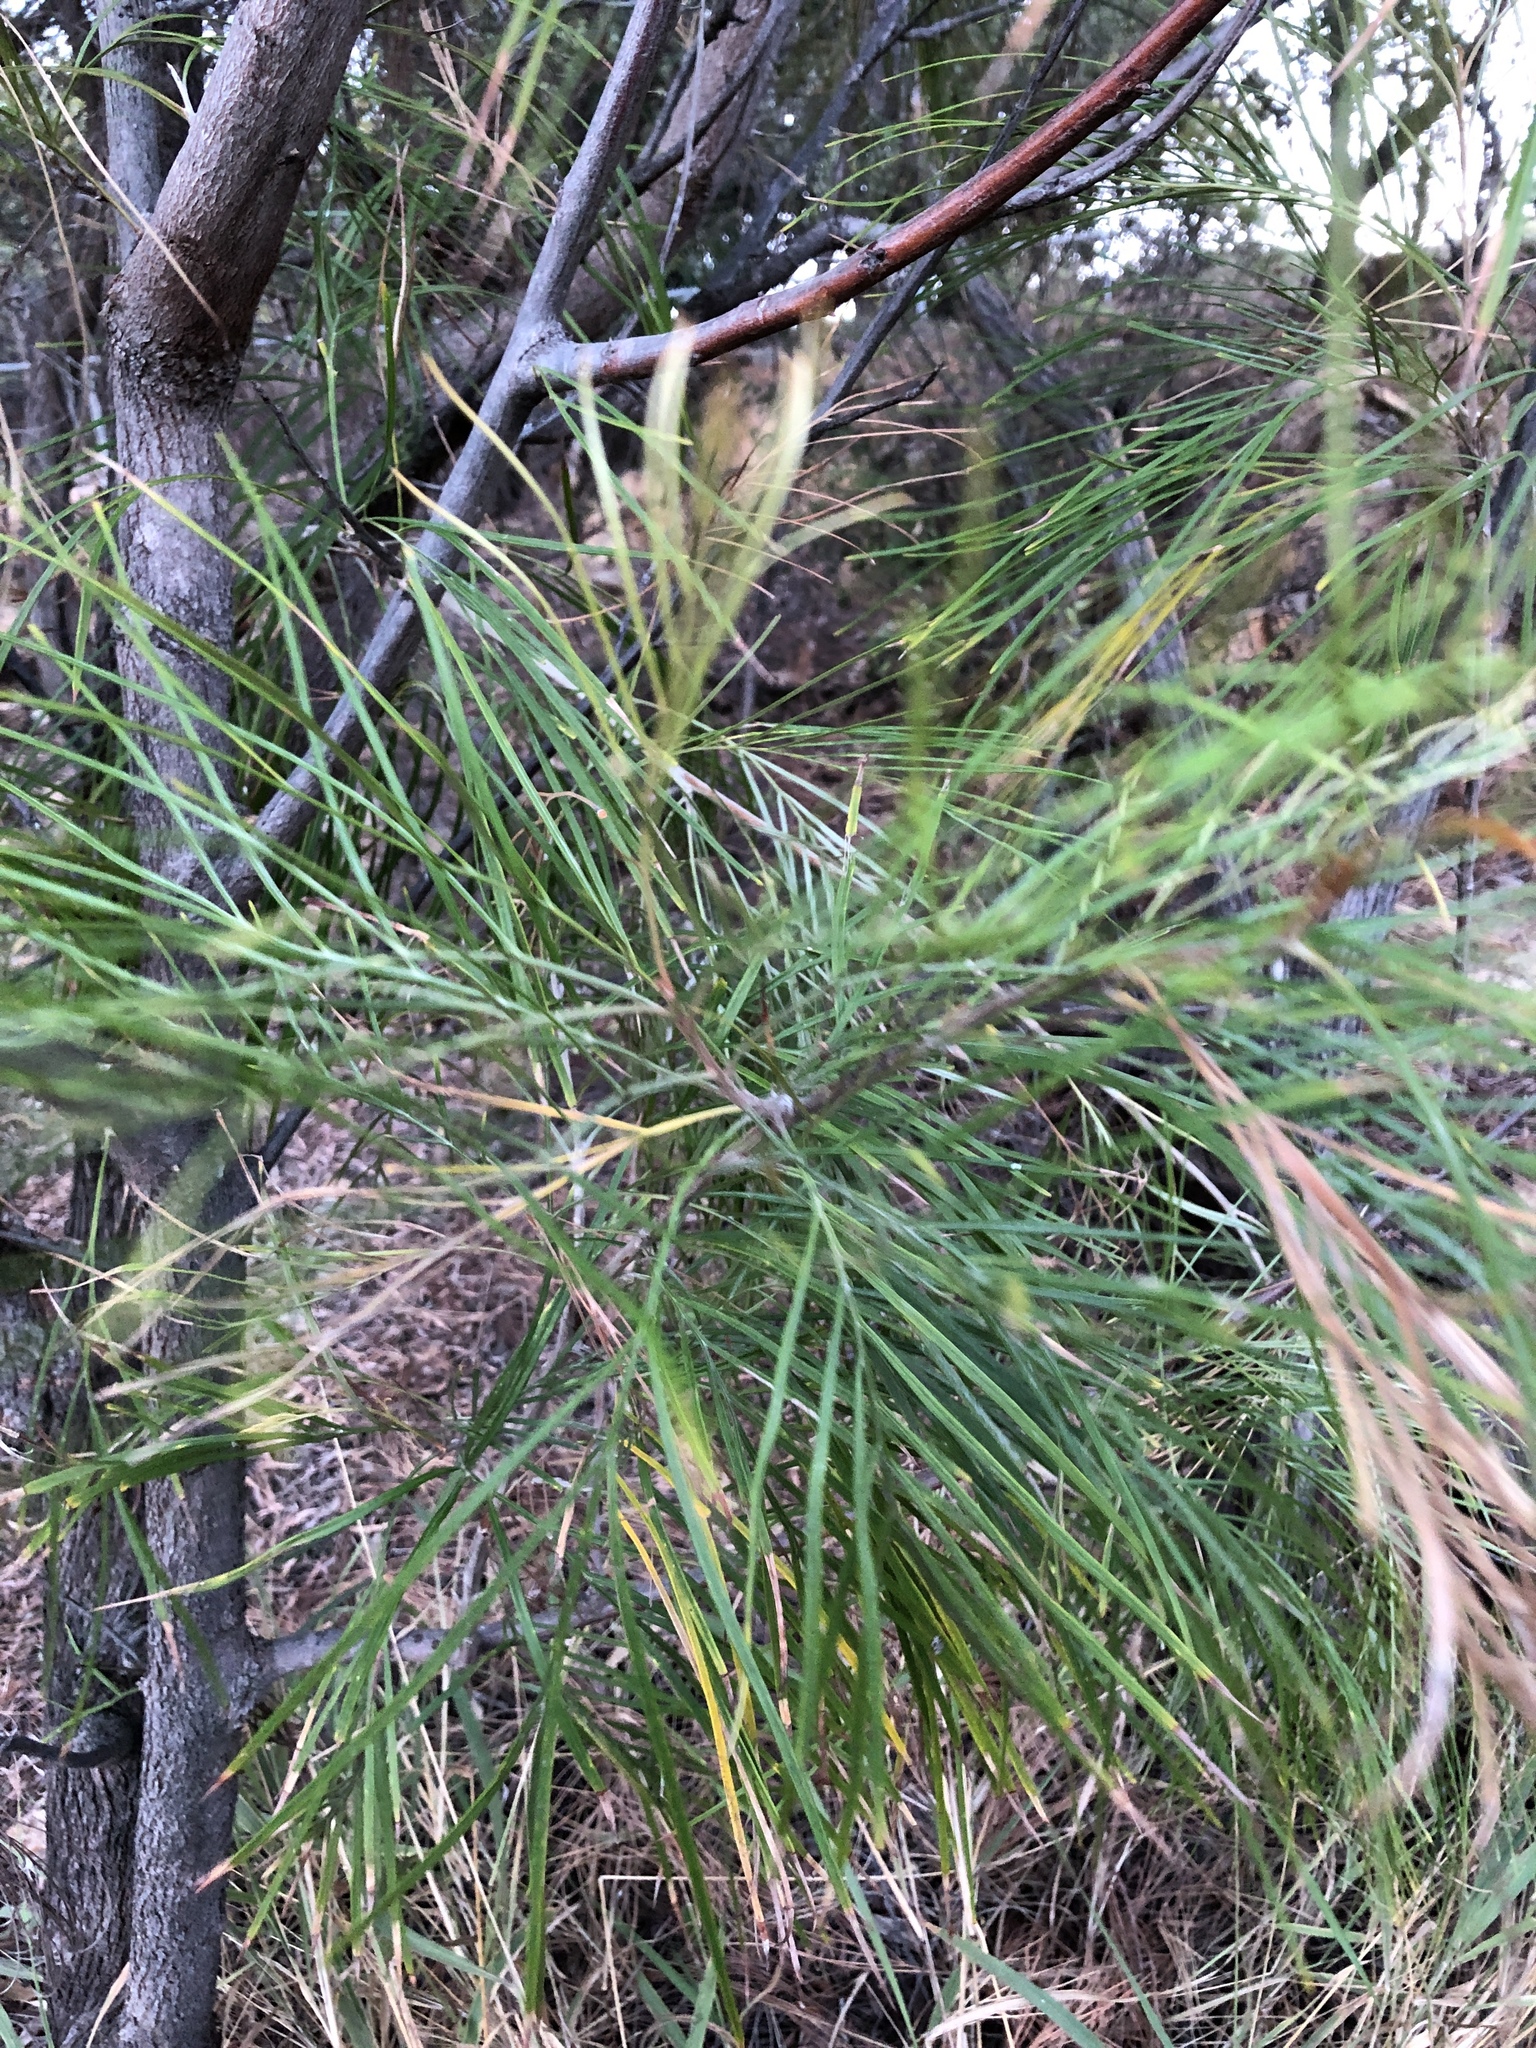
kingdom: Plantae
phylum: Tracheophyta
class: Magnoliopsida
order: Proteales
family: Proteaceae
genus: Grevillea
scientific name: Grevillea pteridifolia
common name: Golden grevillea
